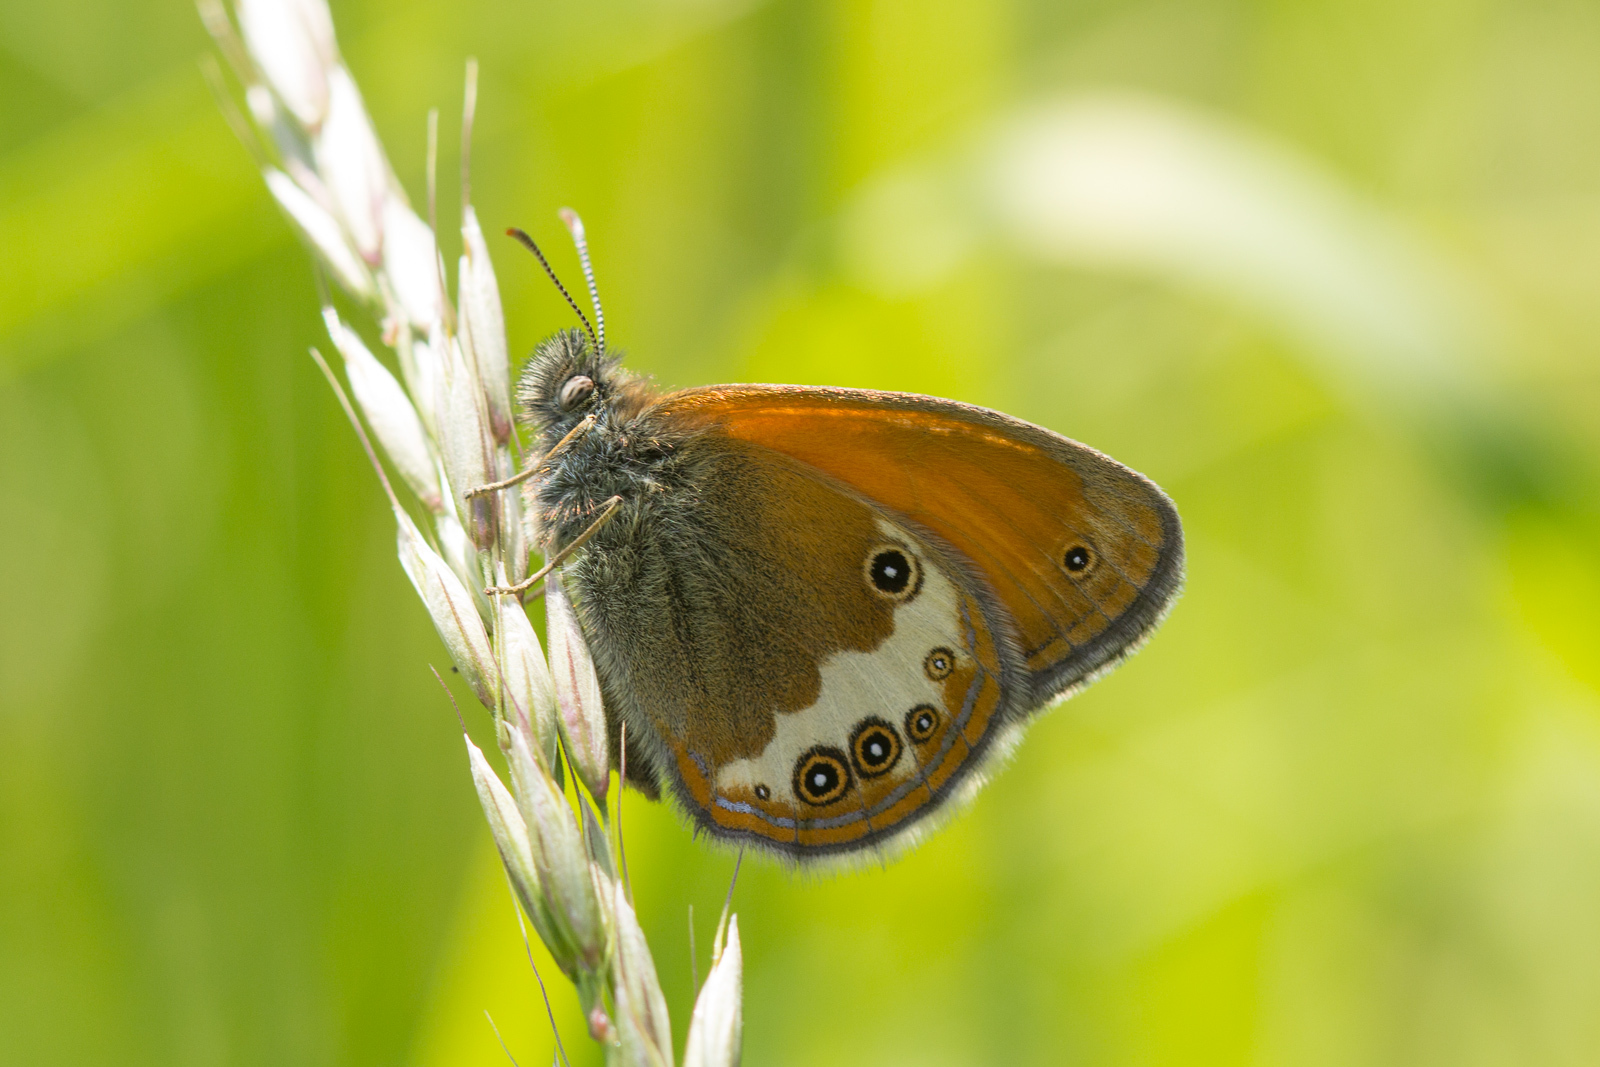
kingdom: Animalia
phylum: Arthropoda
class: Insecta
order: Lepidoptera
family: Nymphalidae
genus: Coenonympha
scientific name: Coenonympha arcania
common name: Pearly heath
